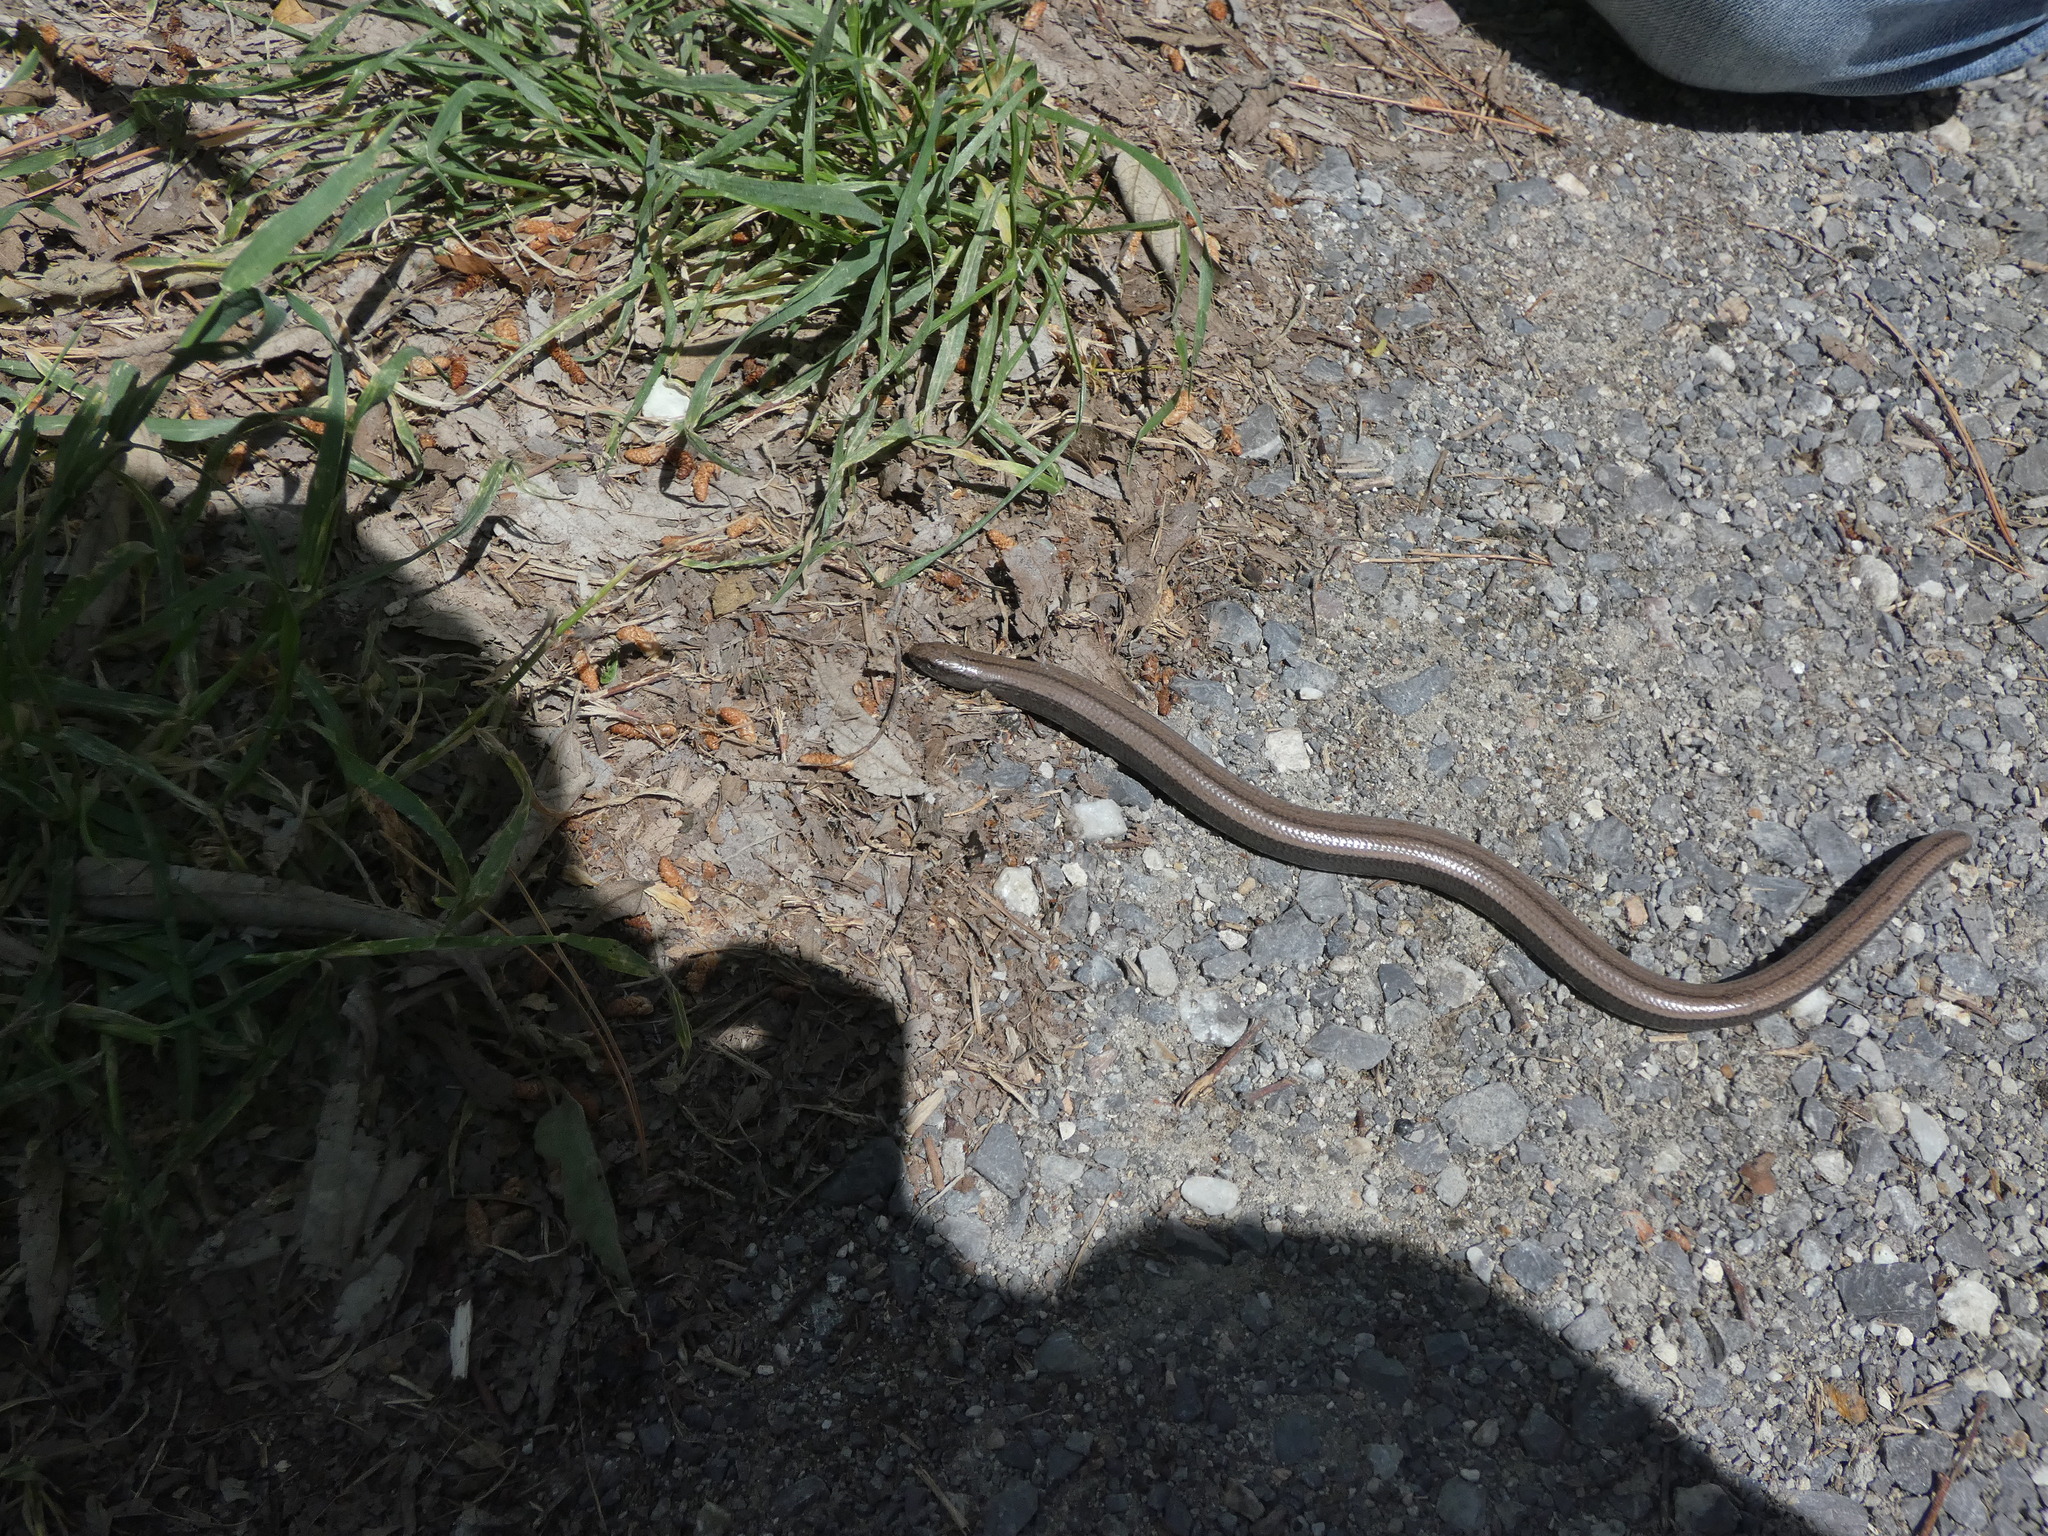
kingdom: Animalia
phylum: Chordata
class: Squamata
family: Anguidae
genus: Anguis
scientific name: Anguis fragilis
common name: Slow worm
